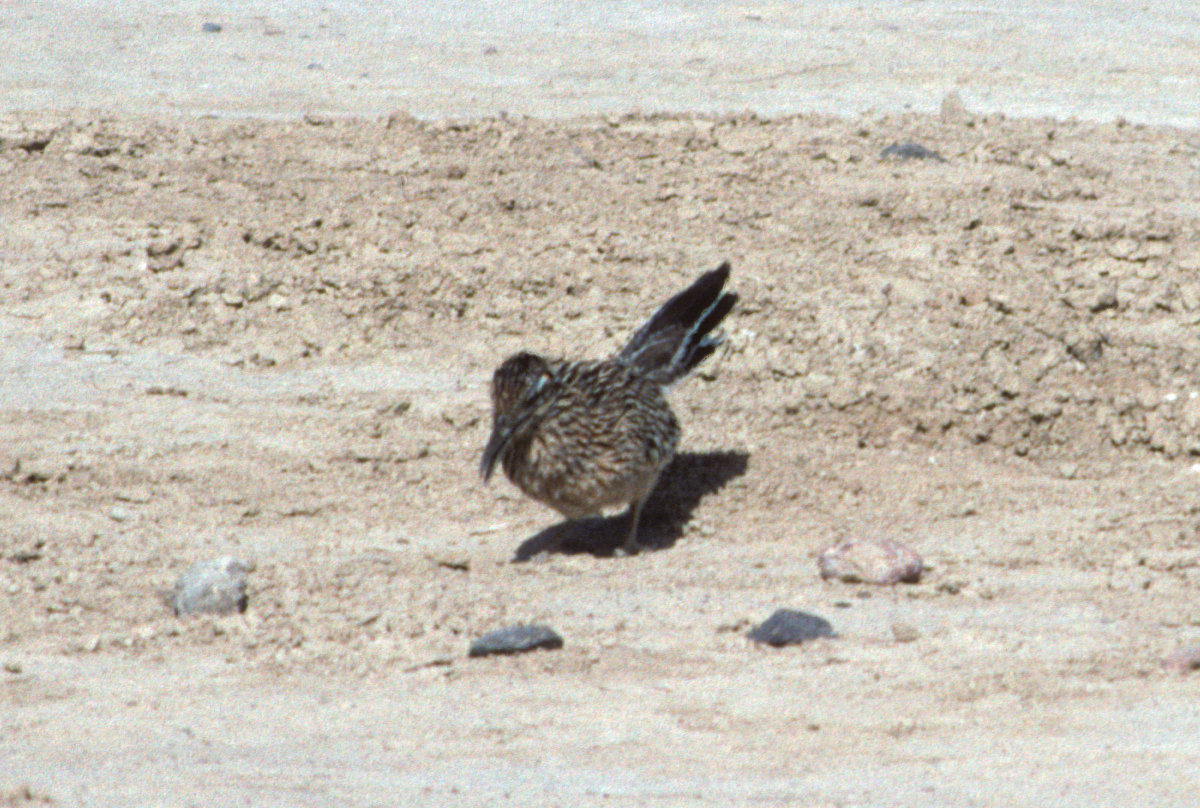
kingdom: Animalia
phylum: Chordata
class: Aves
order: Cuculiformes
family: Cuculidae
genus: Geococcyx
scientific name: Geococcyx californianus
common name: Greater roadrunner
